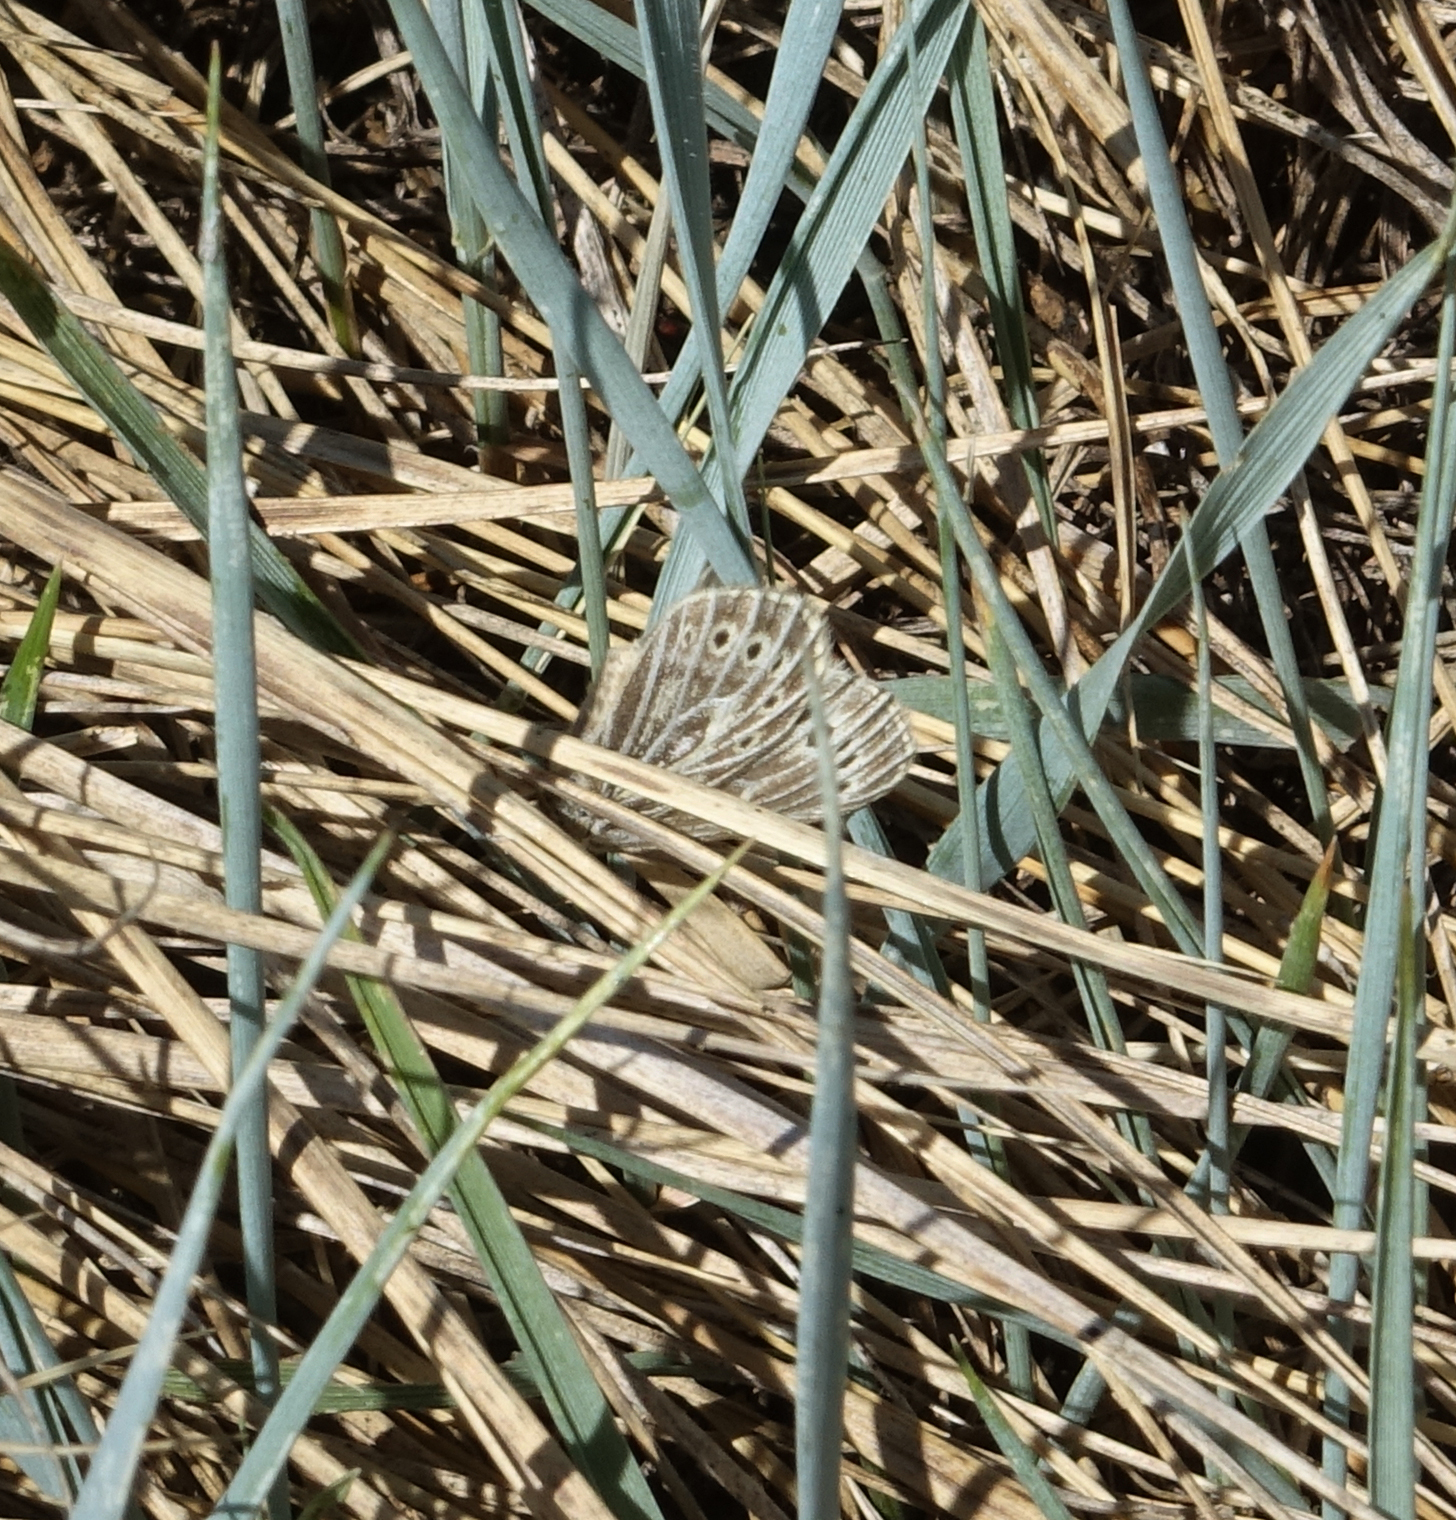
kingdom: Animalia
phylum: Arthropoda
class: Insecta
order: Lepidoptera
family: Nymphalidae
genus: Triphysa
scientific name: Triphysa phryne
